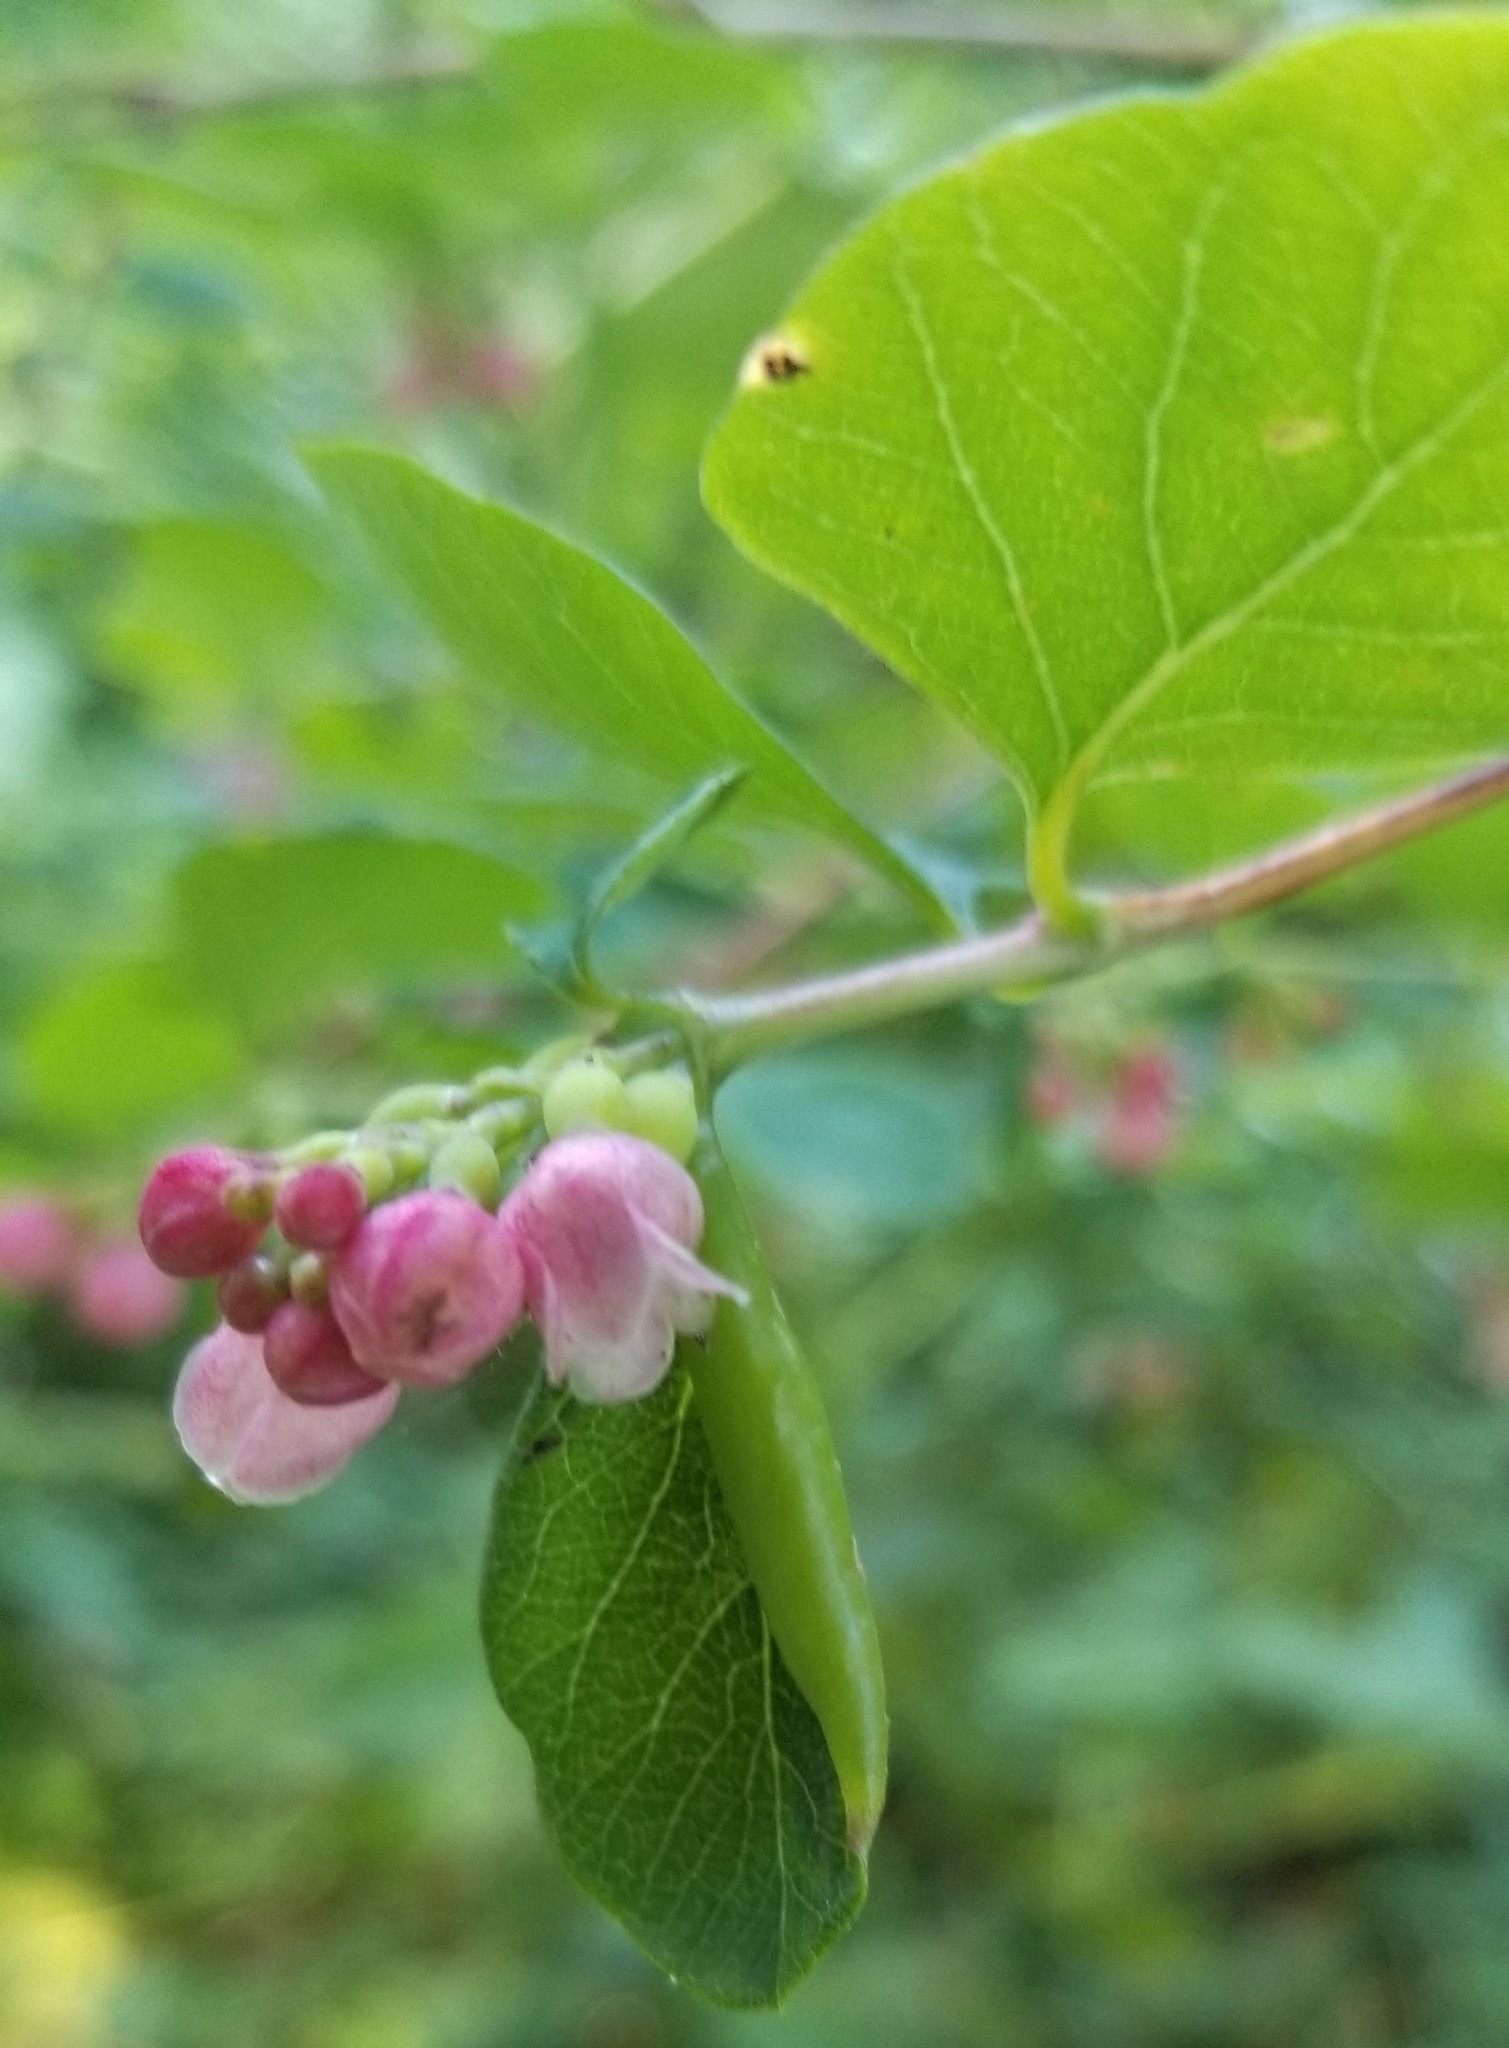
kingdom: Plantae
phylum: Tracheophyta
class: Magnoliopsida
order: Dipsacales
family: Caprifoliaceae
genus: Symphoricarpos
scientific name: Symphoricarpos albus
